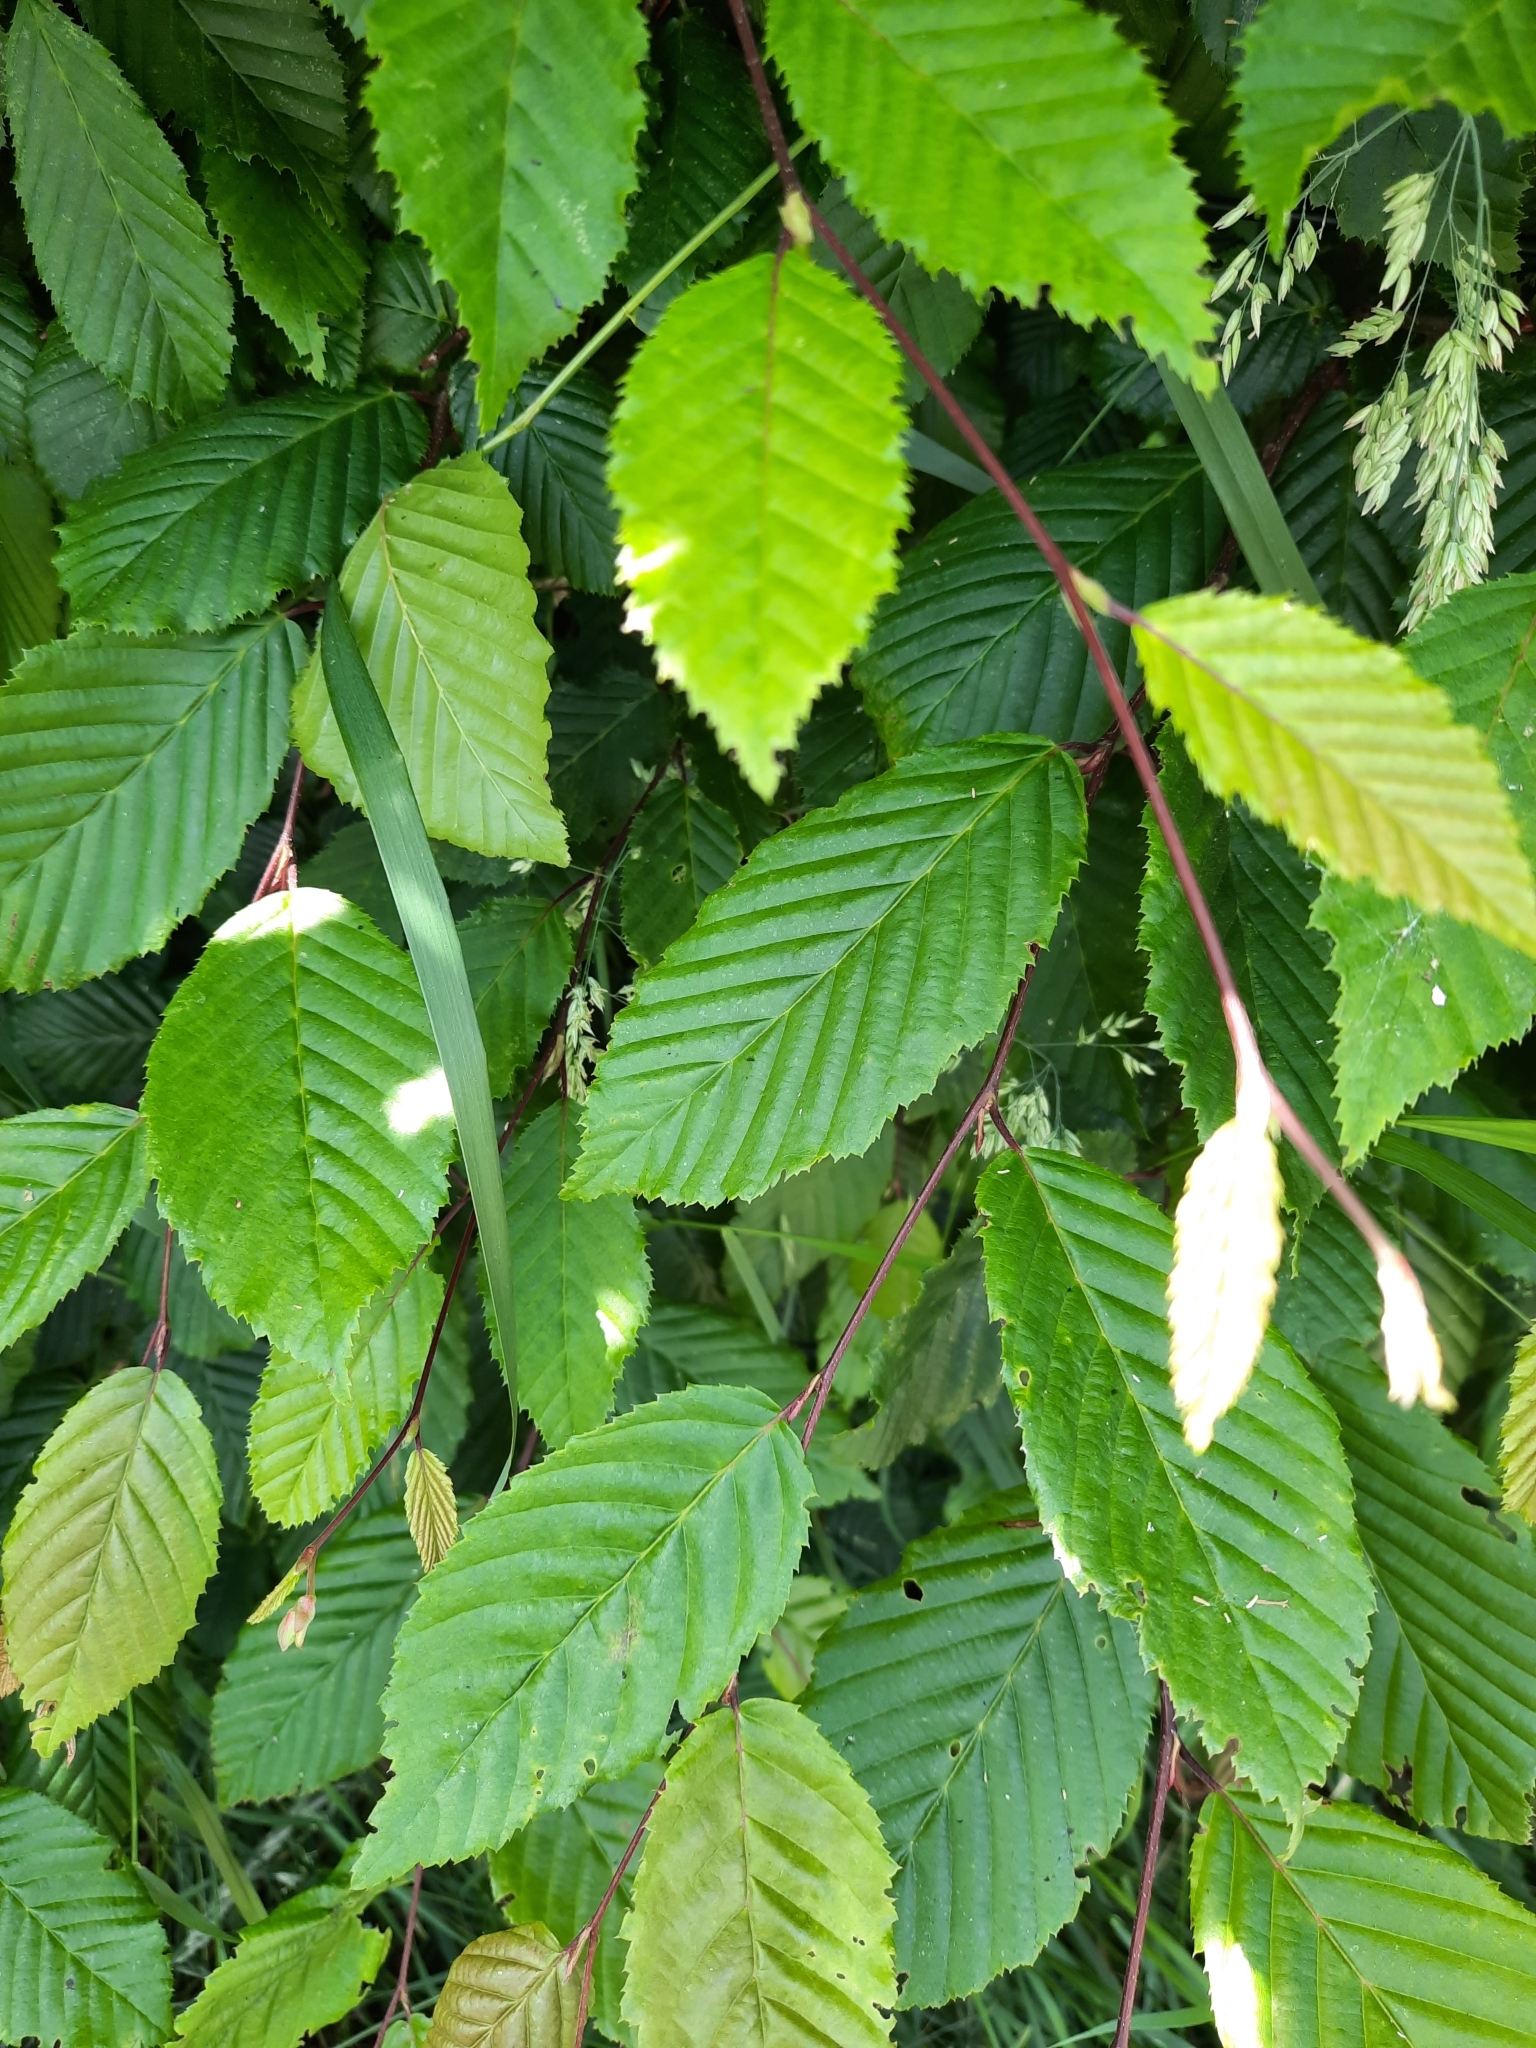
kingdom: Plantae
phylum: Tracheophyta
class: Magnoliopsida
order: Fagales
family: Betulaceae
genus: Carpinus
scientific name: Carpinus betulus
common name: Hornbeam
